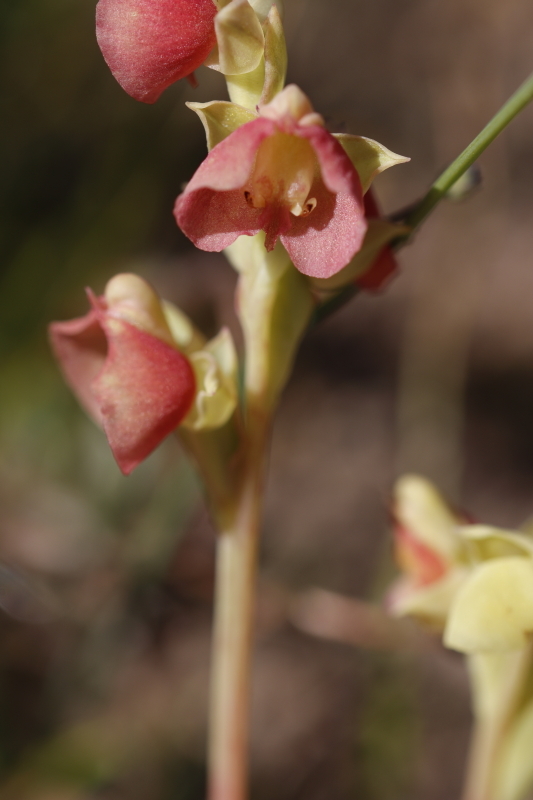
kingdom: Plantae
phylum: Tracheophyta
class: Liliopsida
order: Asparagales
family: Orchidaceae
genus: Pterygodium
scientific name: Pterygodium catholicum
